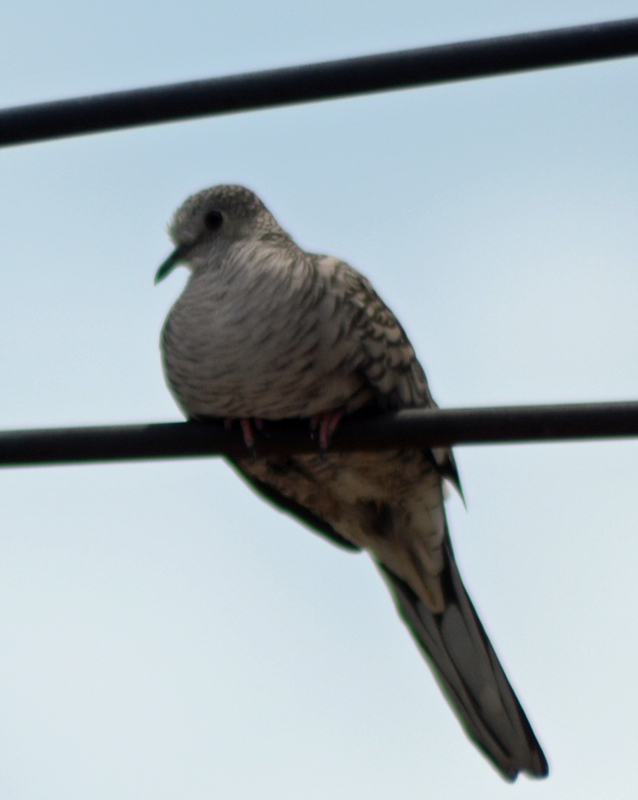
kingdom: Animalia
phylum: Chordata
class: Aves
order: Columbiformes
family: Columbidae
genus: Columbina
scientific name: Columbina inca
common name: Inca dove
